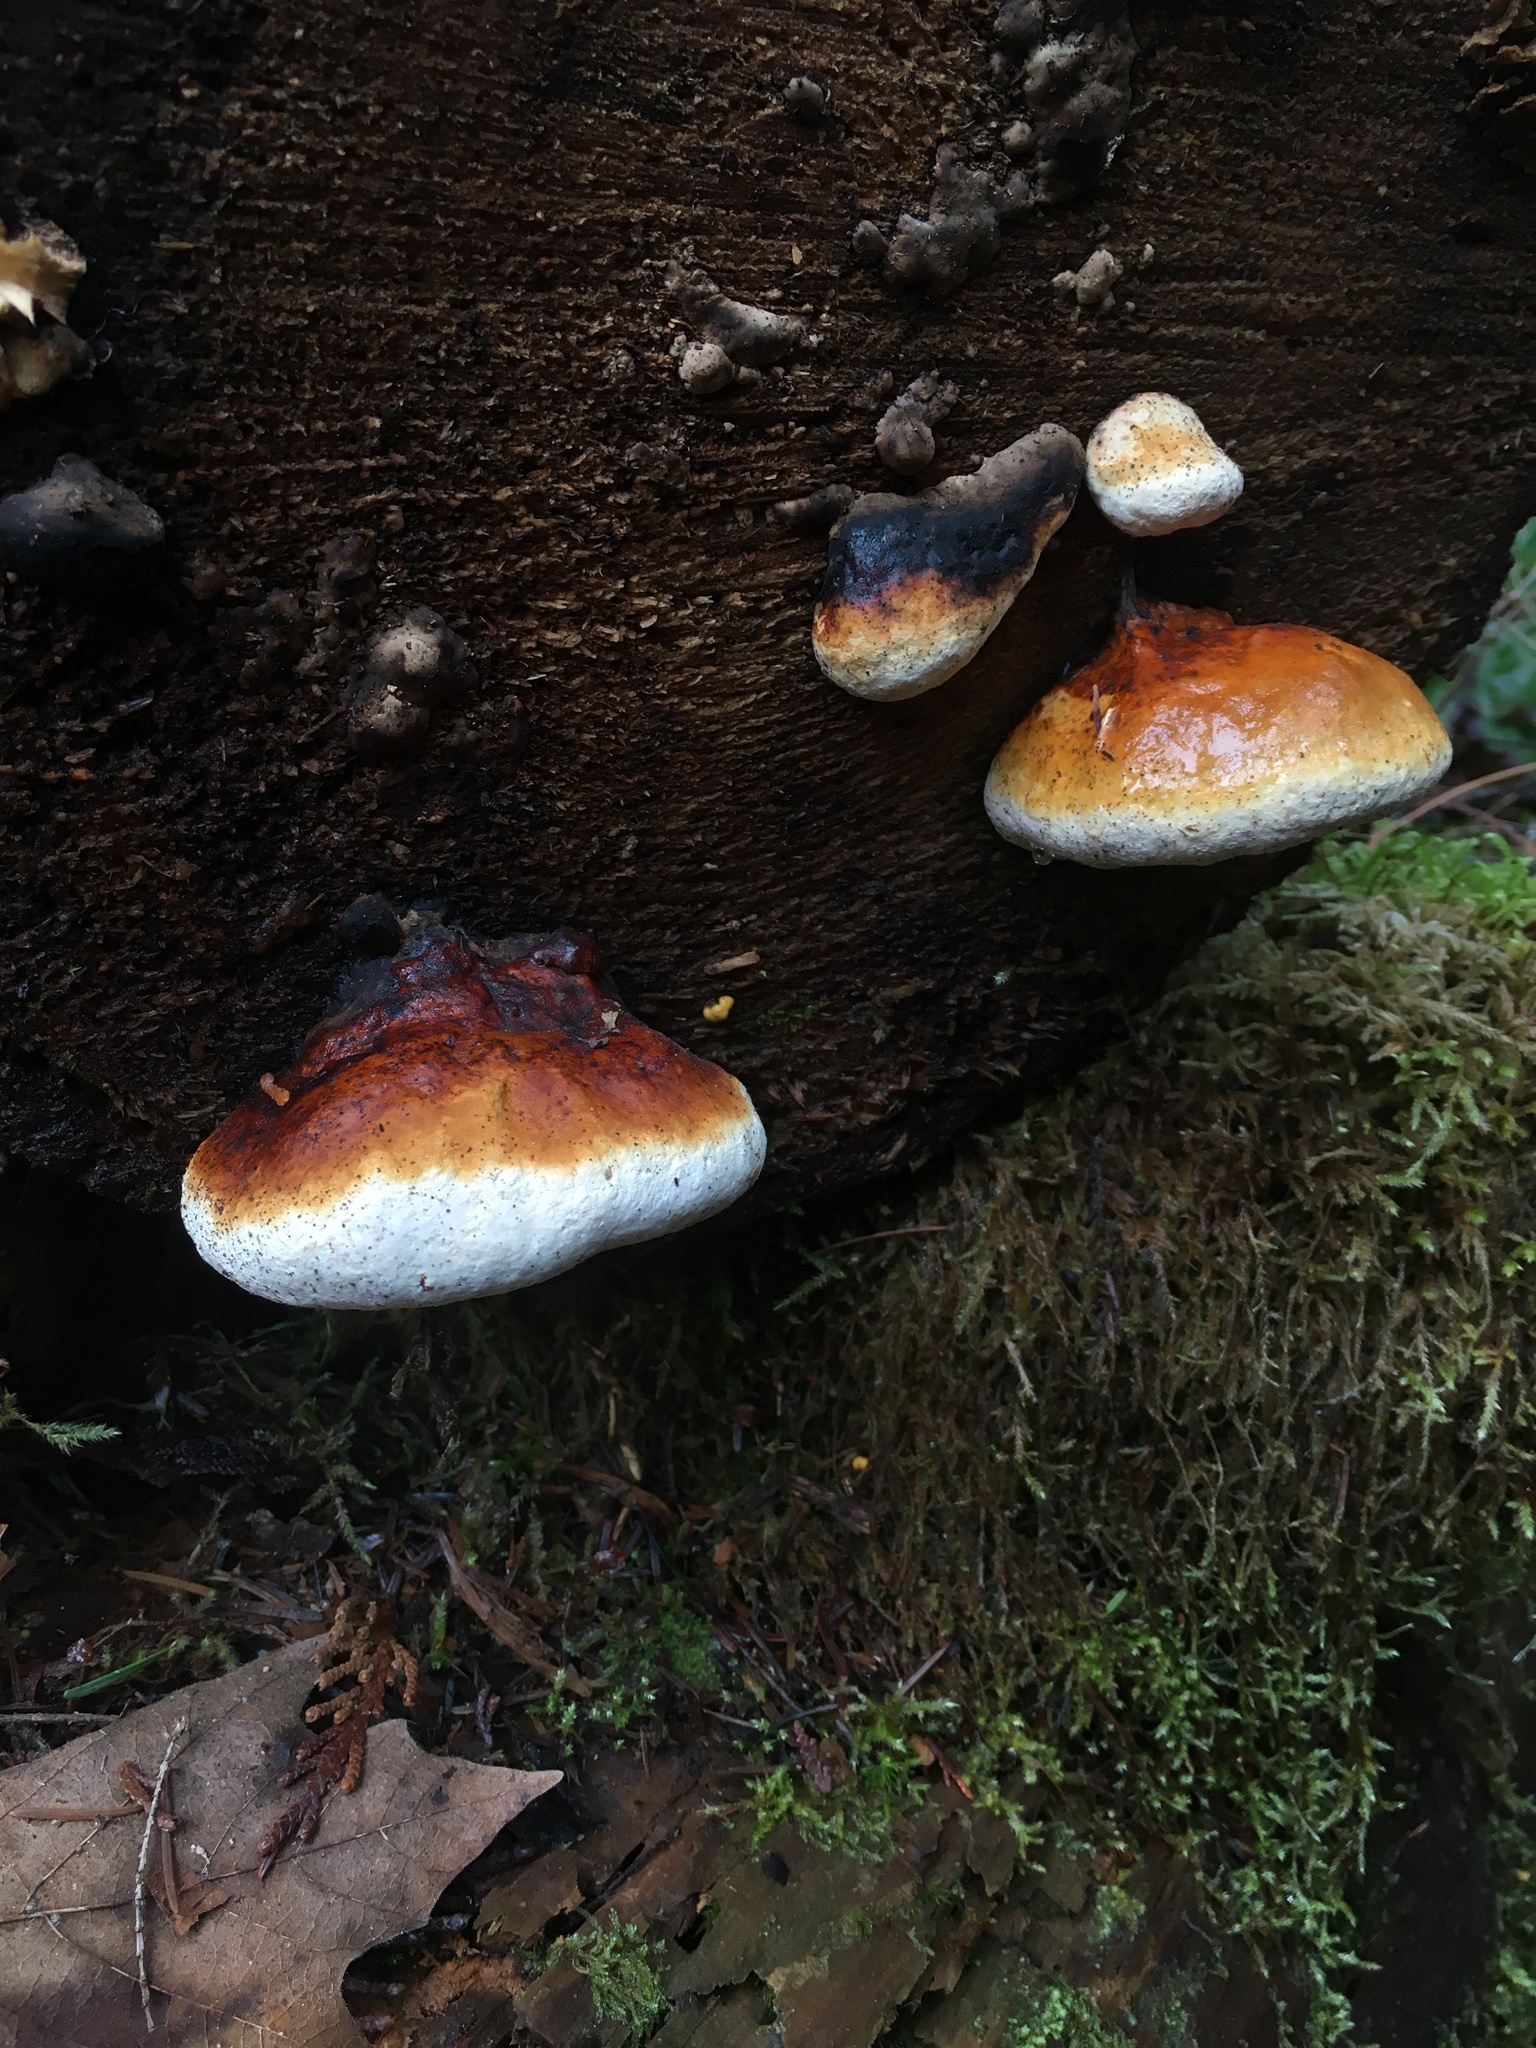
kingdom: Fungi
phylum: Basidiomycota
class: Agaricomycetes
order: Polyporales
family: Fomitopsidaceae
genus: Fomitopsis
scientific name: Fomitopsis mounceae
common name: Northern red belt
